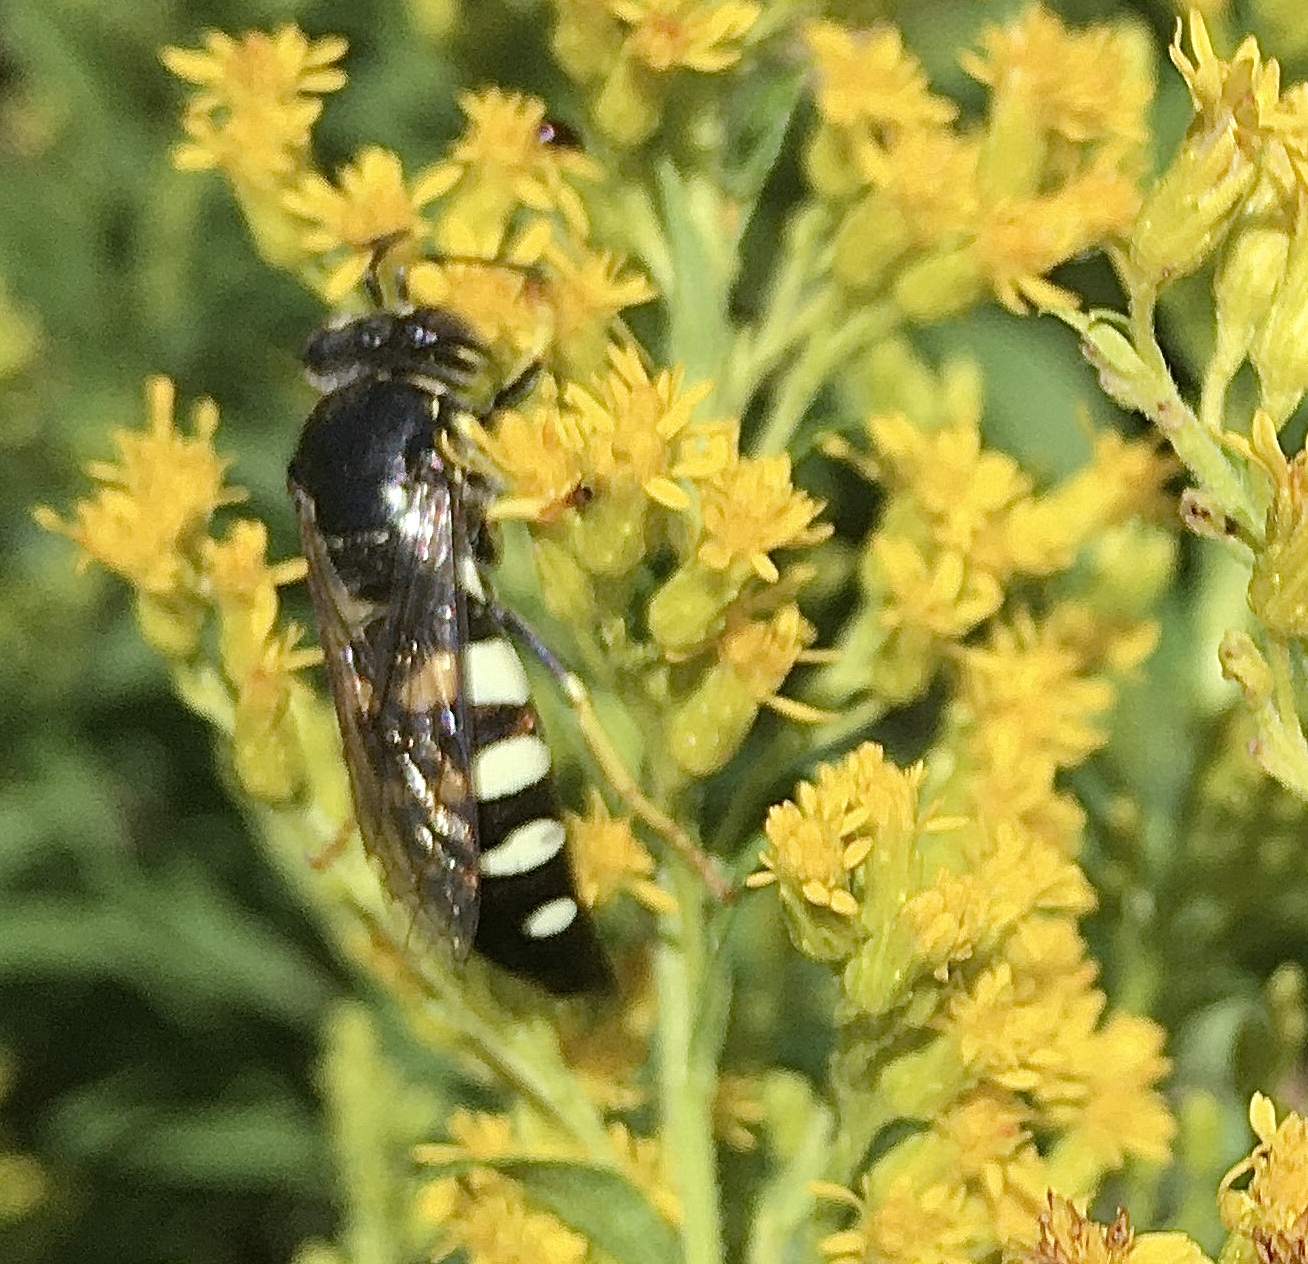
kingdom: Animalia
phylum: Arthropoda
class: Insecta
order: Hymenoptera
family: Crabronidae
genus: Bicyrtes
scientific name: Bicyrtes quadrifasciatus
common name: Four-banded stink bug hunter wasp
